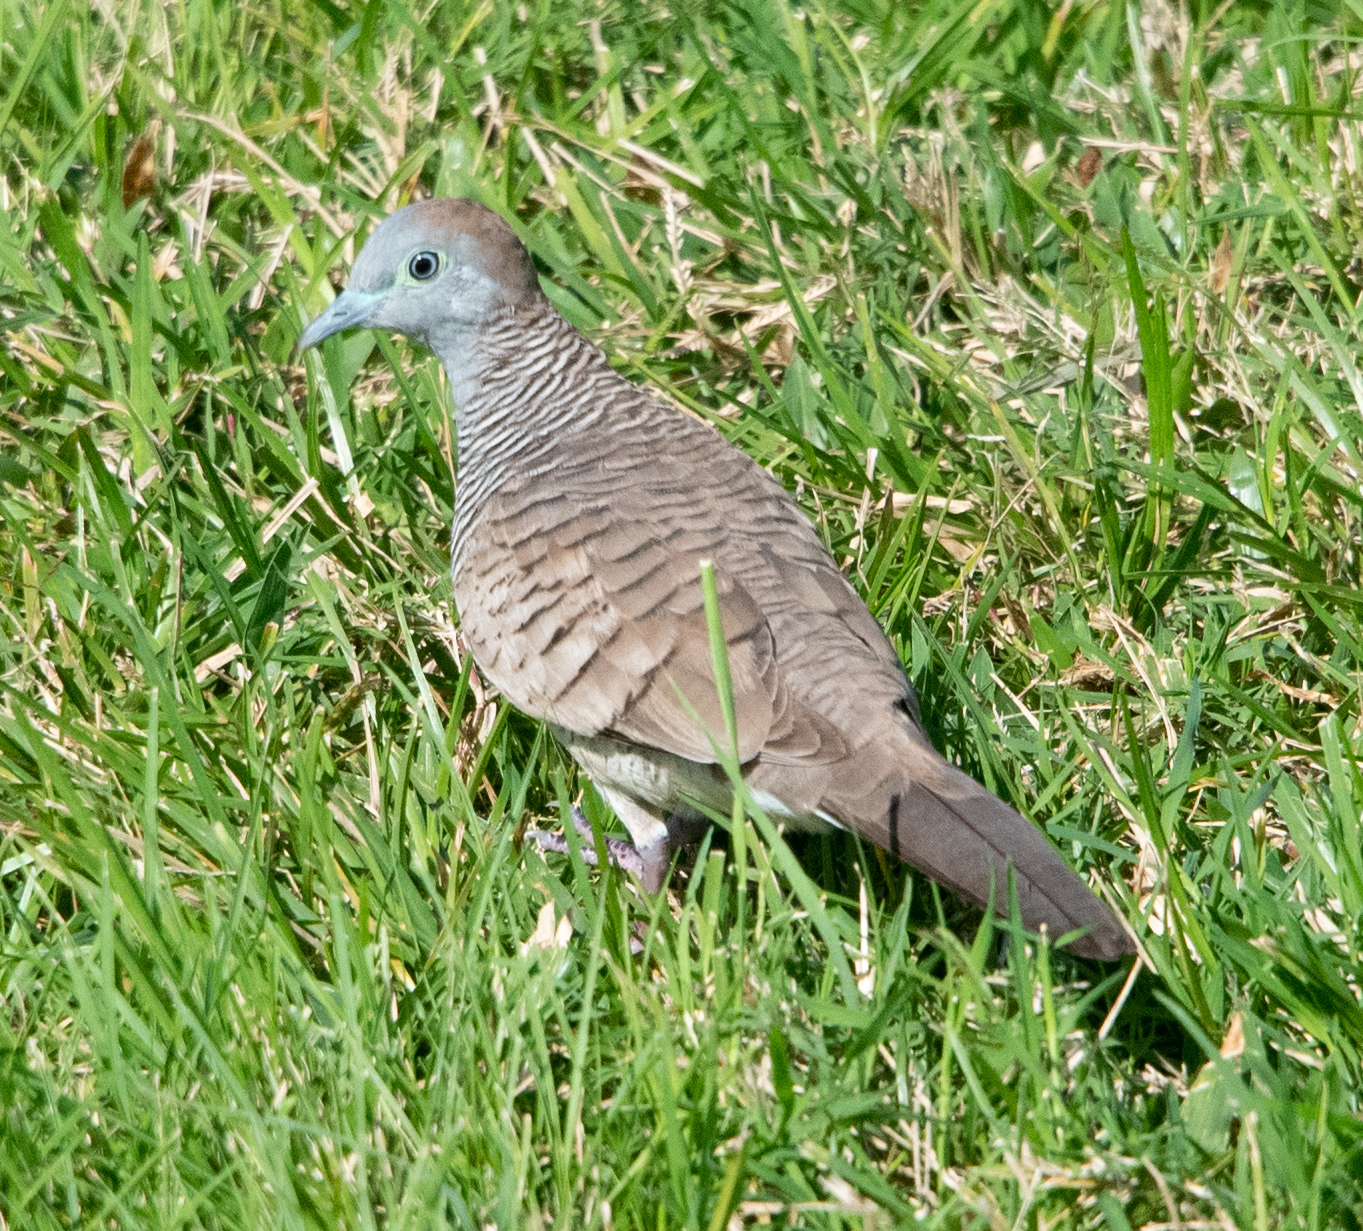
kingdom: Animalia
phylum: Chordata
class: Aves
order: Columbiformes
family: Columbidae
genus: Geopelia
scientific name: Geopelia striata
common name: Zebra dove
